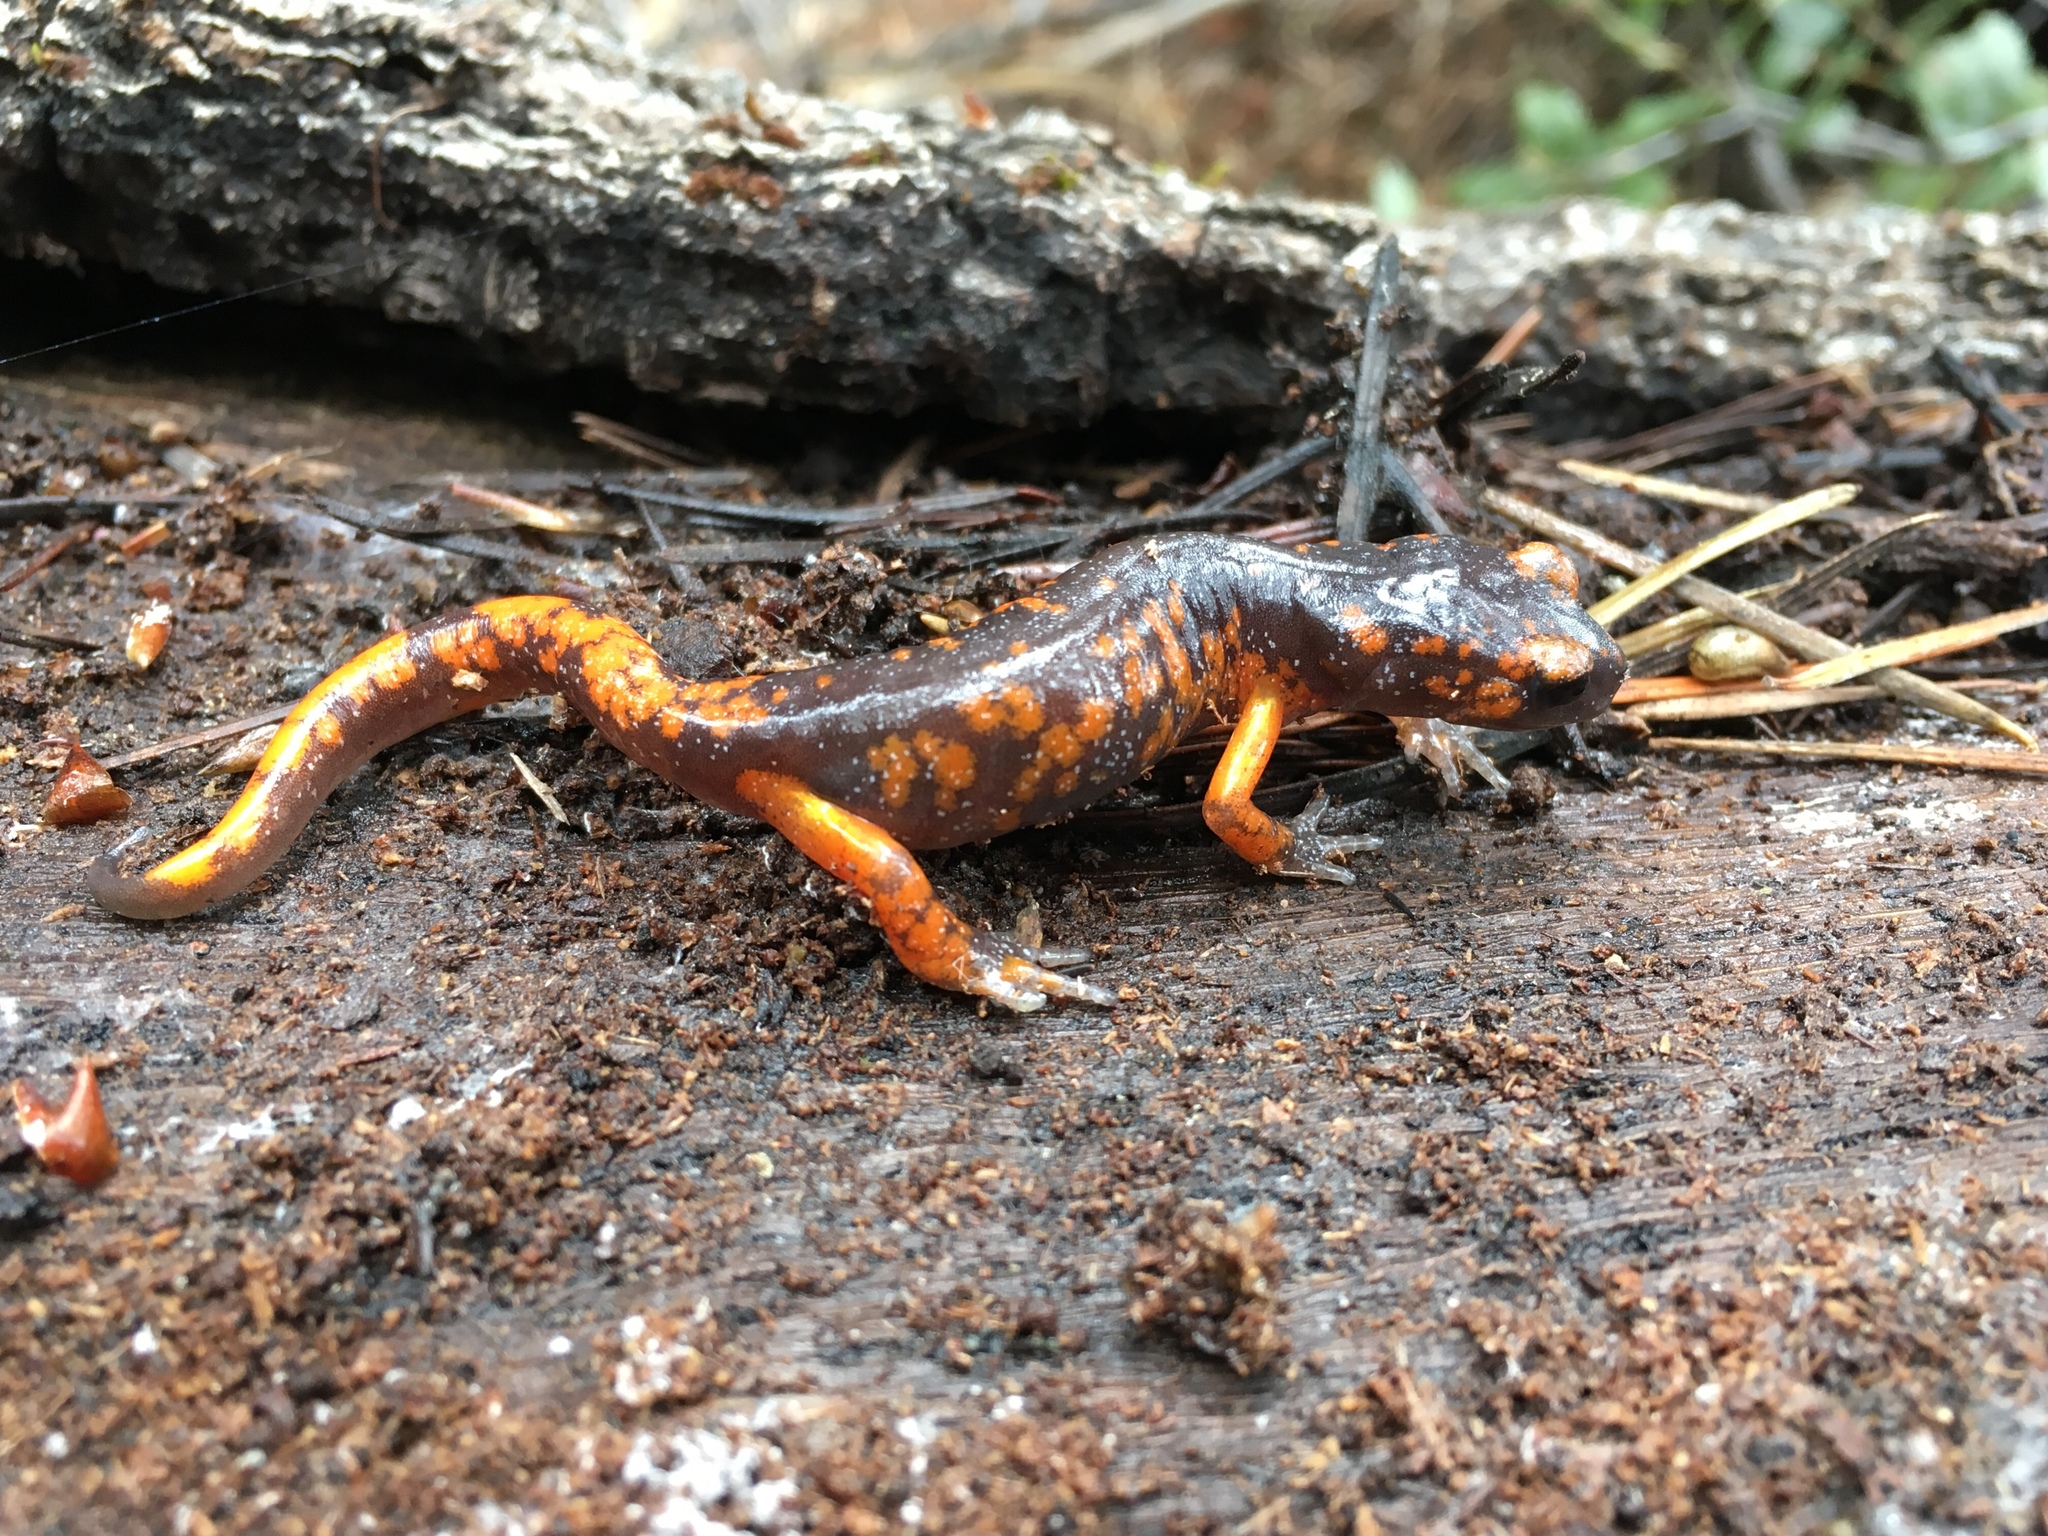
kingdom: Animalia
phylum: Chordata
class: Amphibia
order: Caudata
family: Plethodontidae
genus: Ensatina
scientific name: Ensatina eschscholtzii
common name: Ensatina
